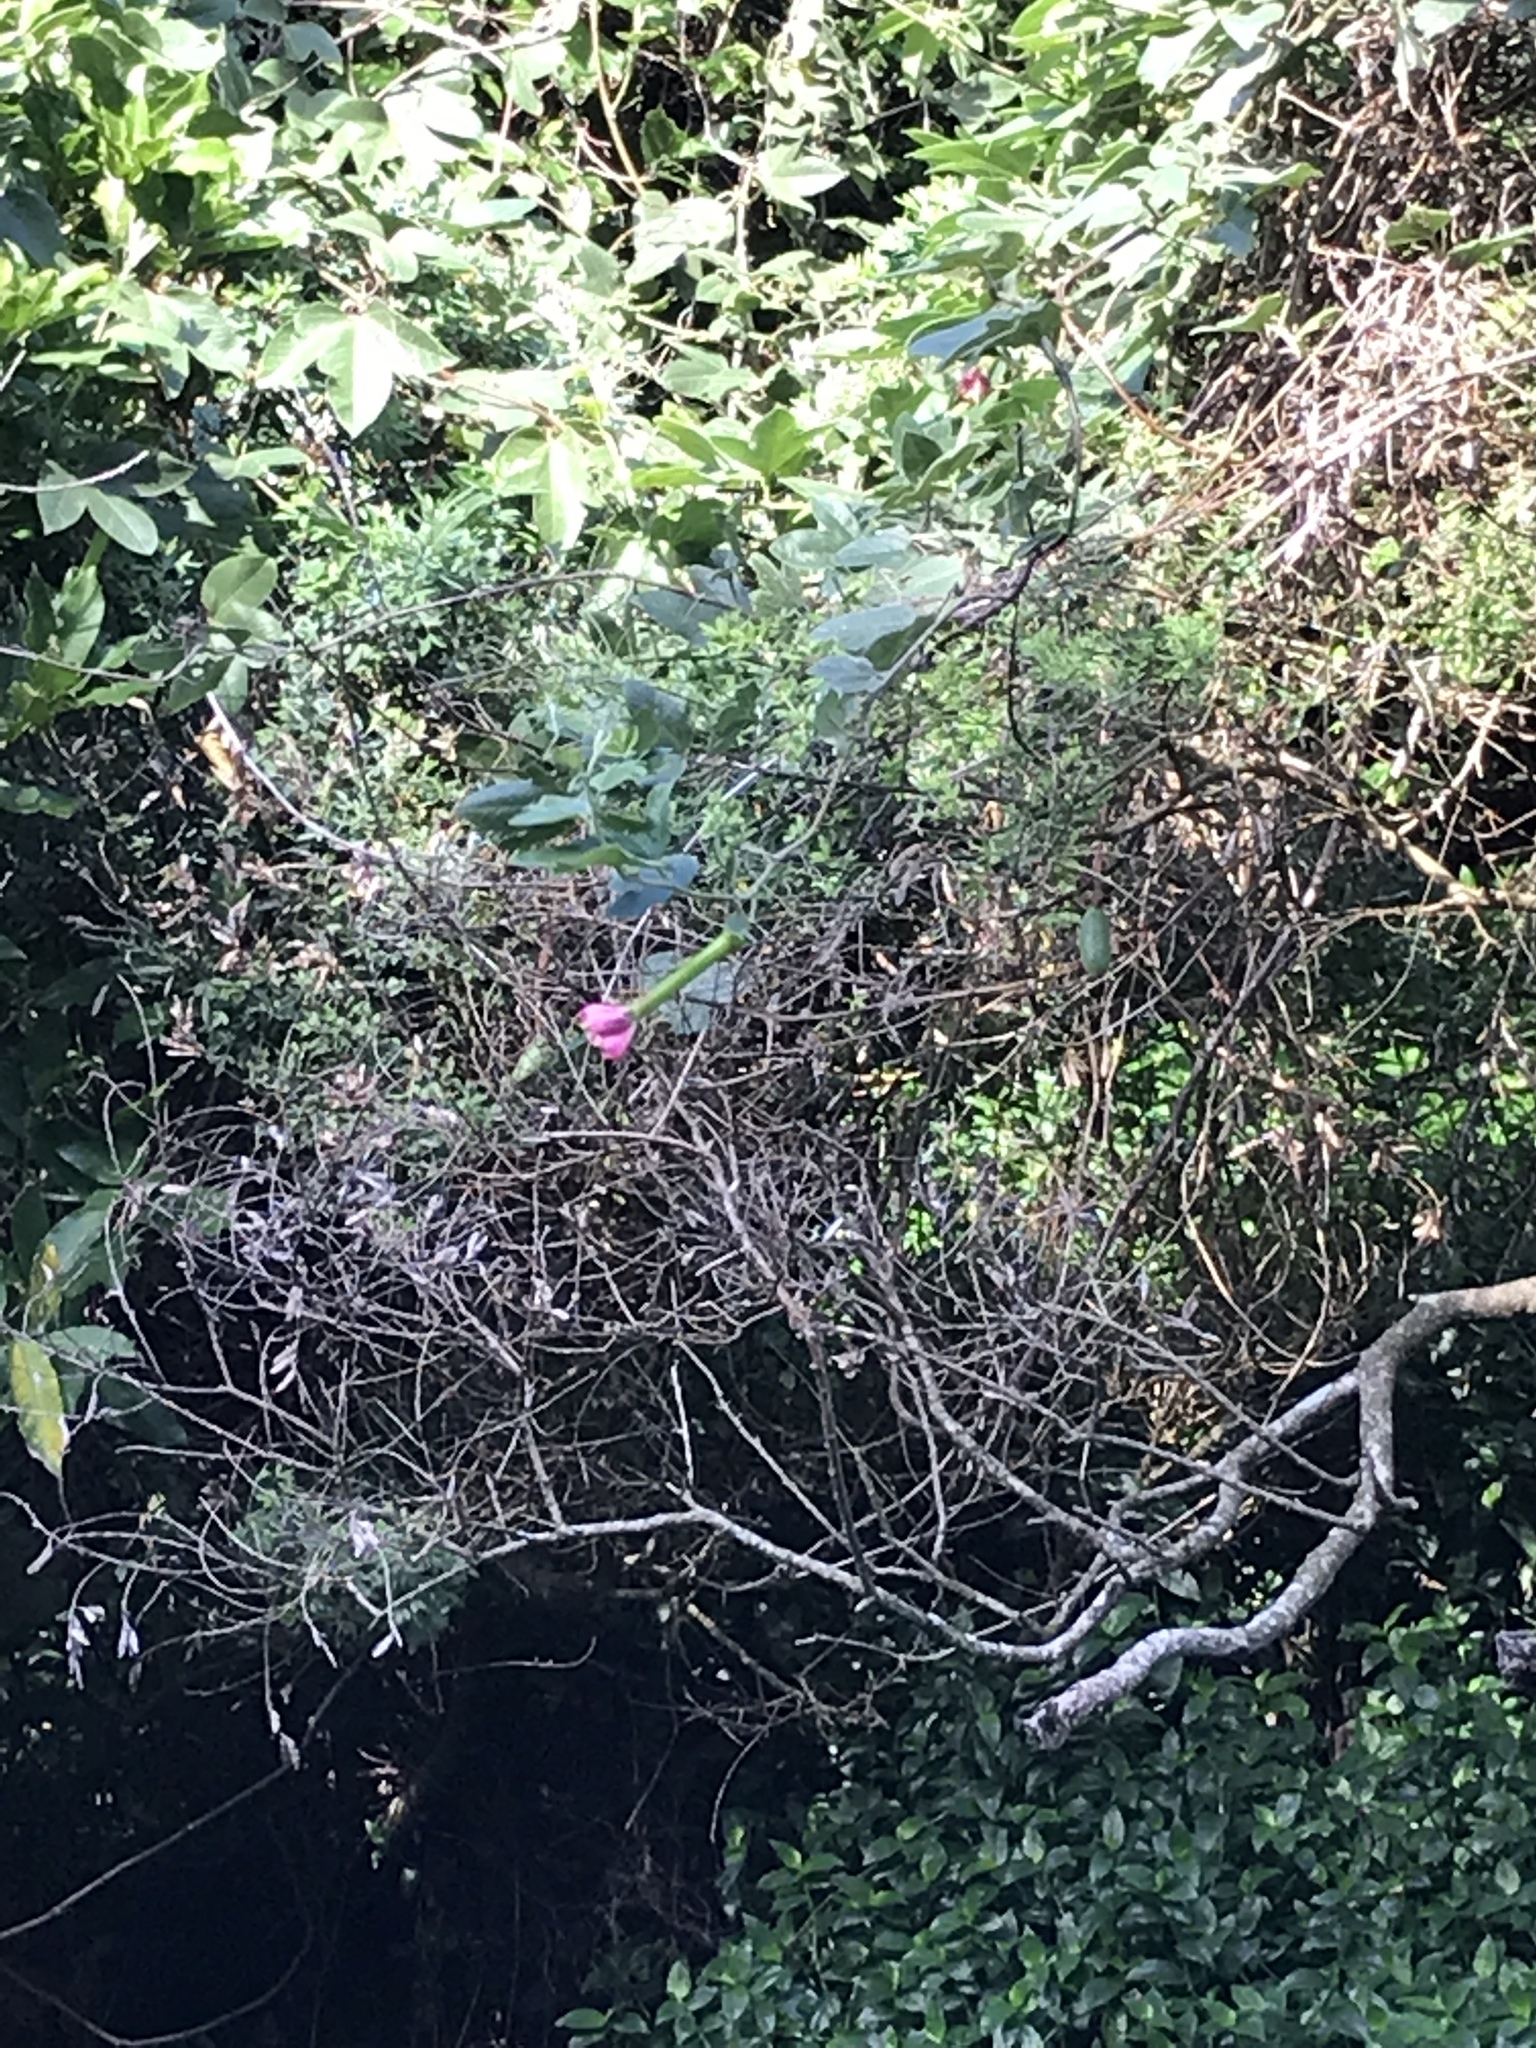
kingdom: Plantae
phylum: Tracheophyta
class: Magnoliopsida
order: Malpighiales
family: Passifloraceae
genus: Passiflora
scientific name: Passiflora tripartita
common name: Banana poka
